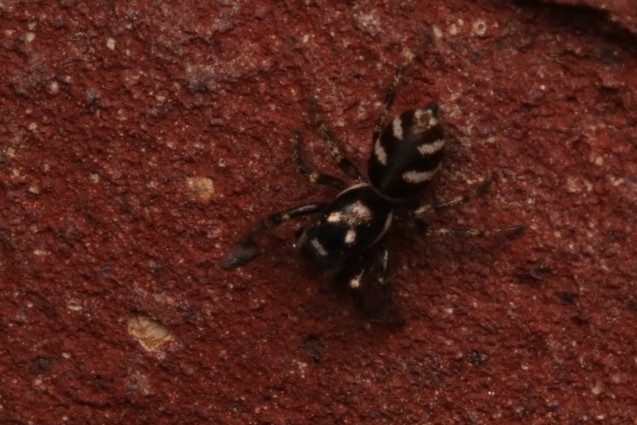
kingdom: Animalia
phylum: Arthropoda
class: Arachnida
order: Araneae
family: Salticidae
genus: Salticus
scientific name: Salticus scenicus
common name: Zebra jumper
